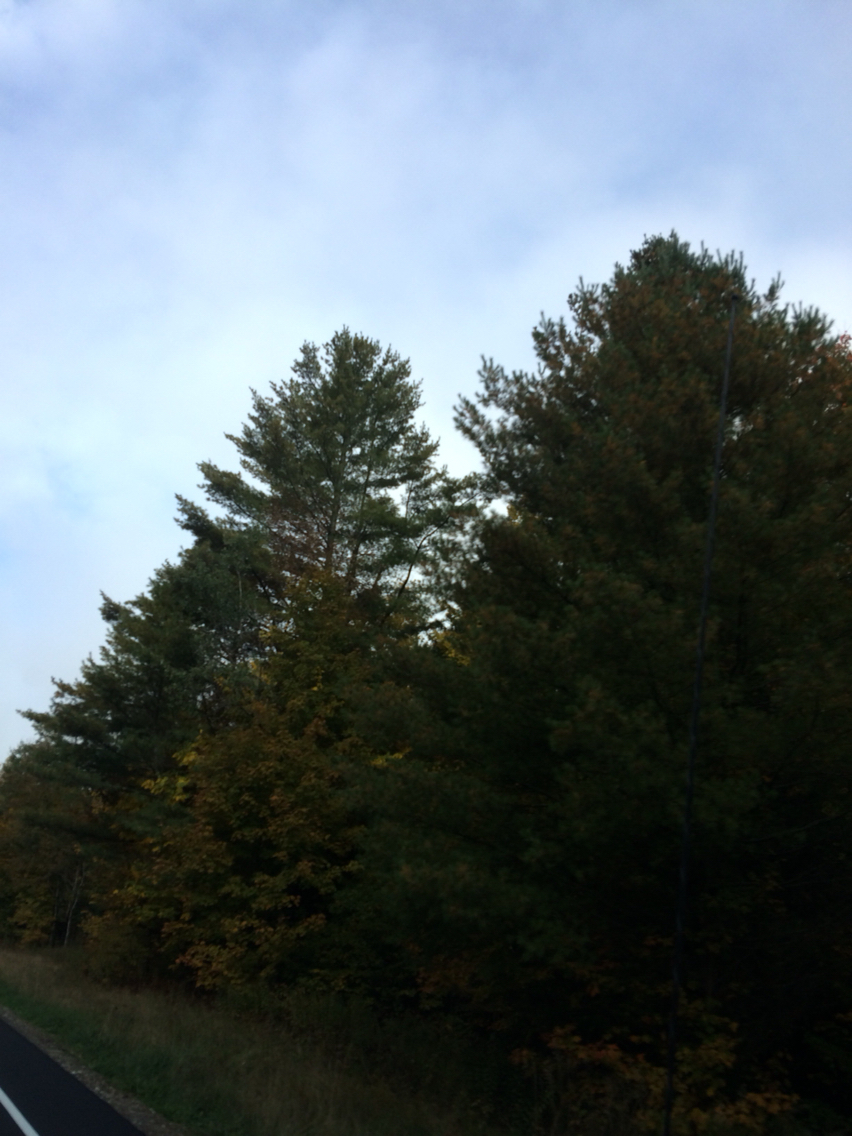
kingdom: Plantae
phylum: Tracheophyta
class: Pinopsida
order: Pinales
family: Pinaceae
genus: Pinus
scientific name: Pinus strobus
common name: Weymouth pine
